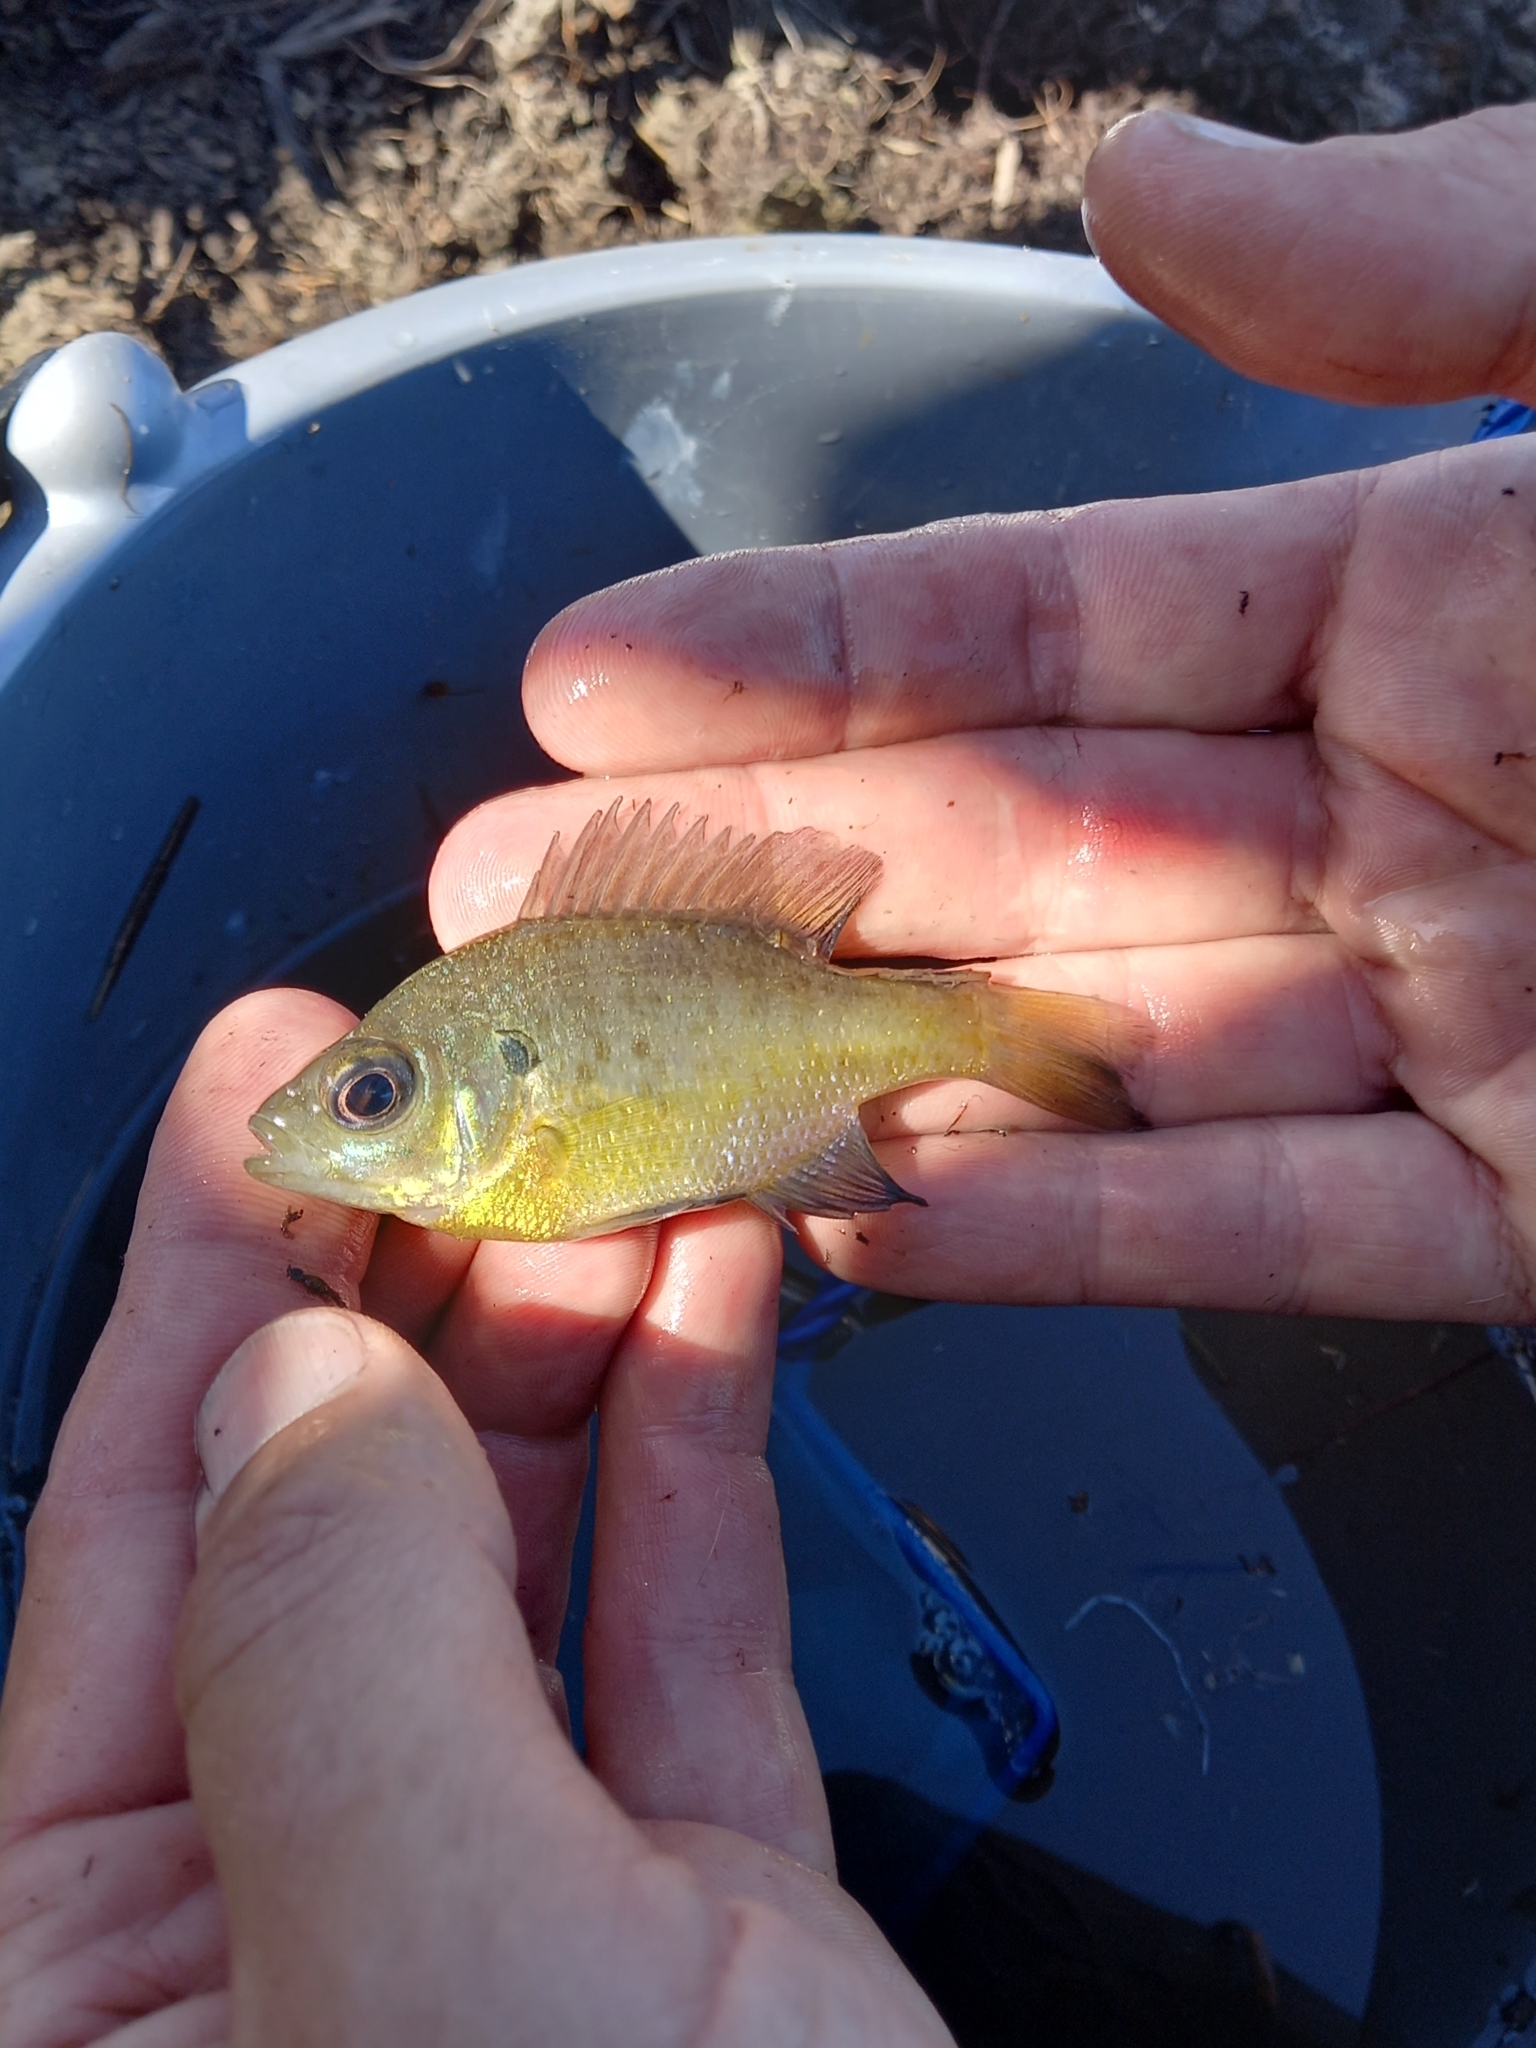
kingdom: Animalia
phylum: Chordata
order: Perciformes
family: Centrarchidae
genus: Lepomis
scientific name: Lepomis macrochirus
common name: Bluegill
